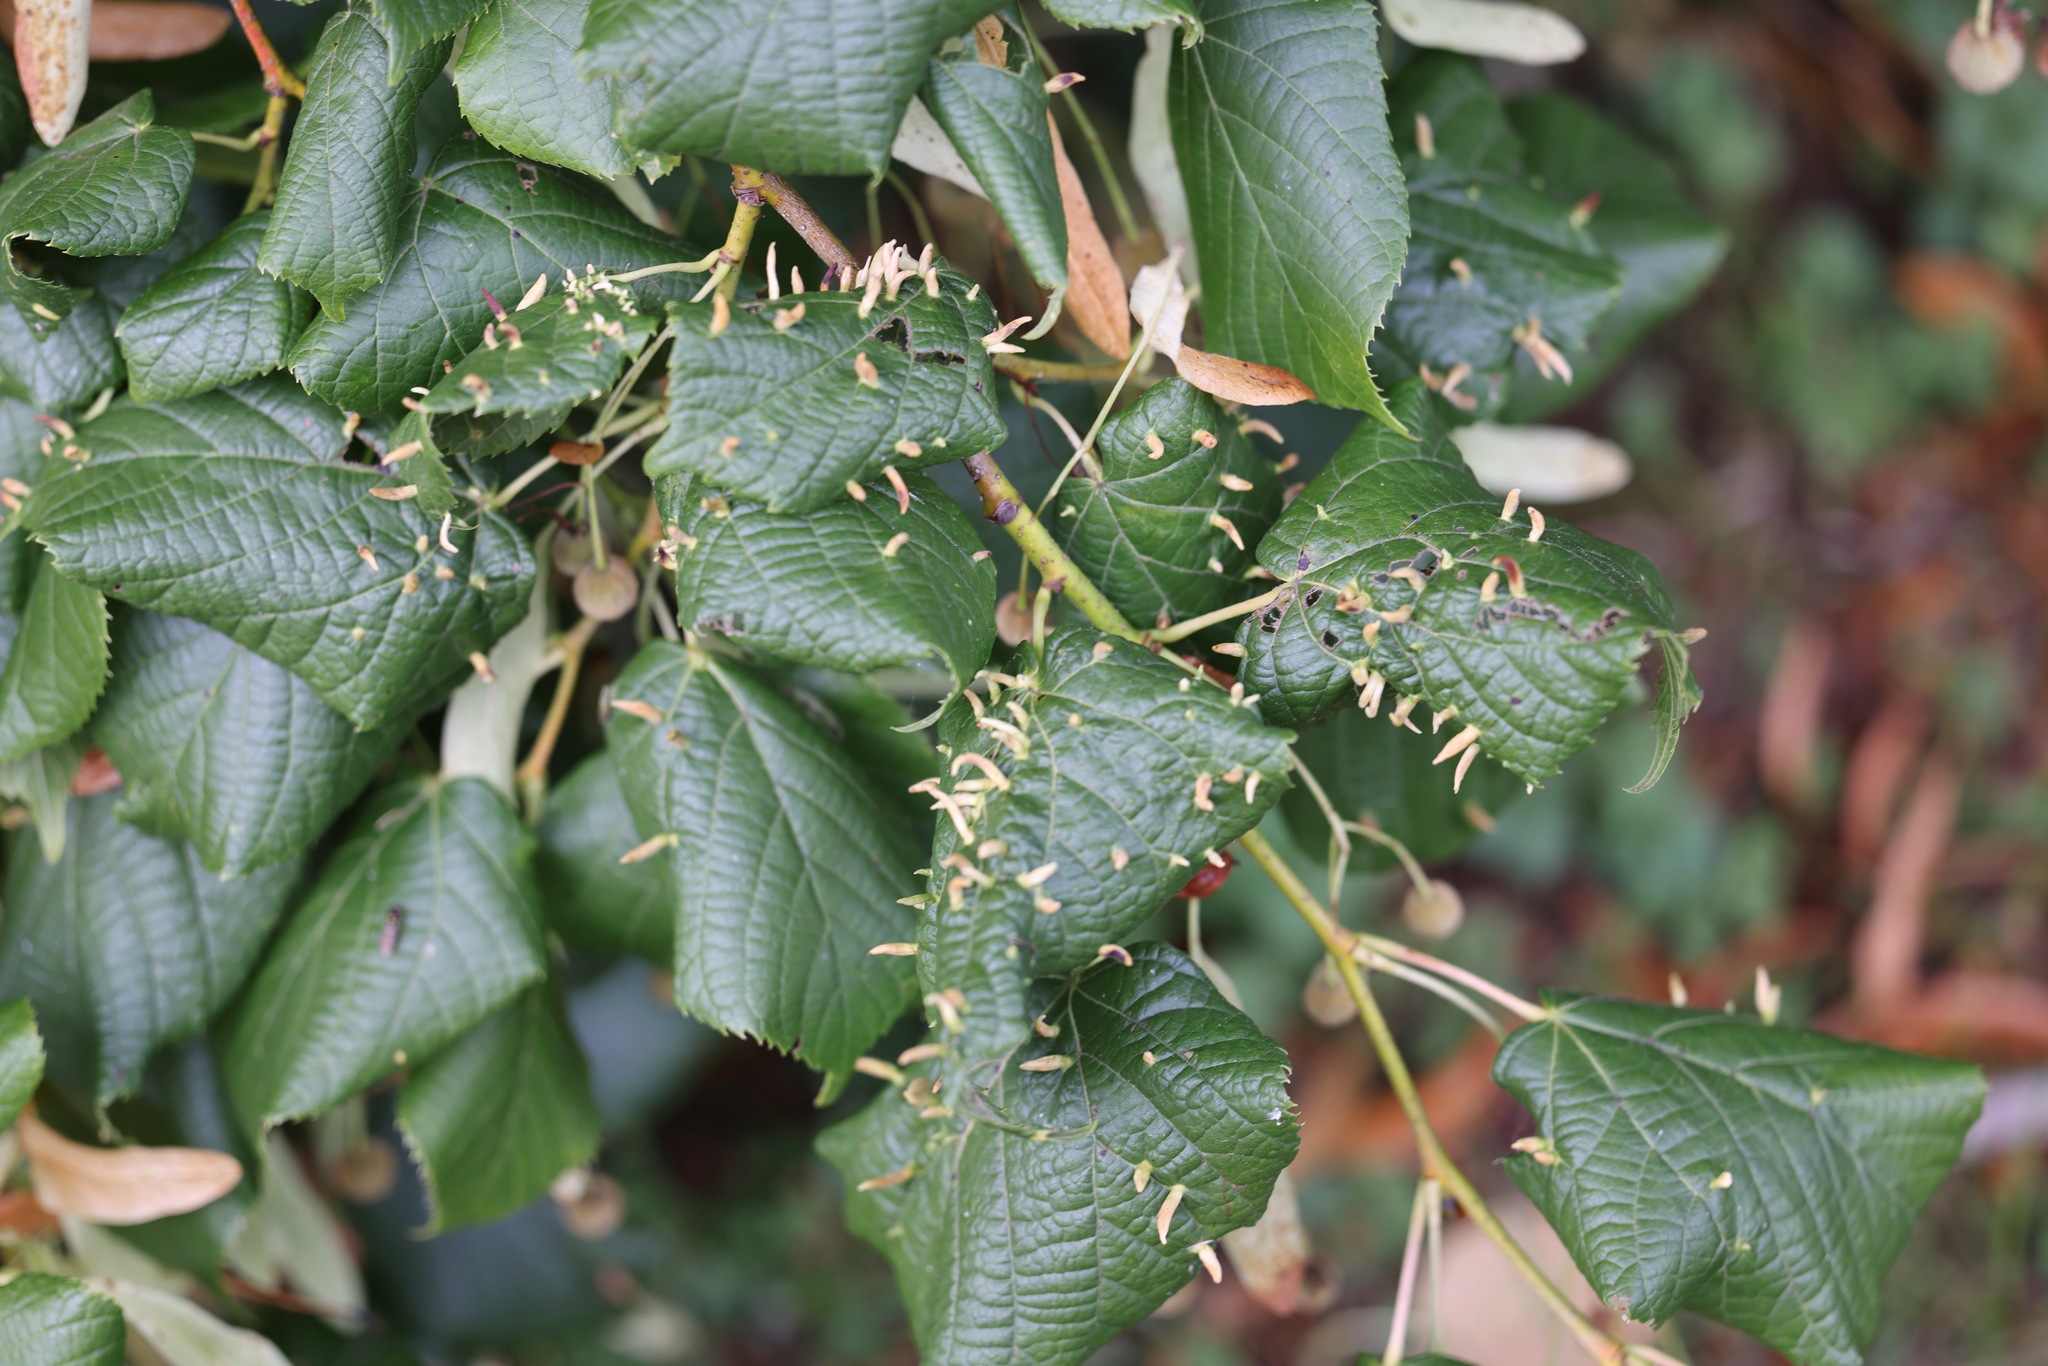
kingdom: Animalia
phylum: Arthropoda
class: Arachnida
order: Trombidiformes
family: Eriophyidae
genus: Eriophyes
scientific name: Eriophyes tiliae
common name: Red nail gall mite
